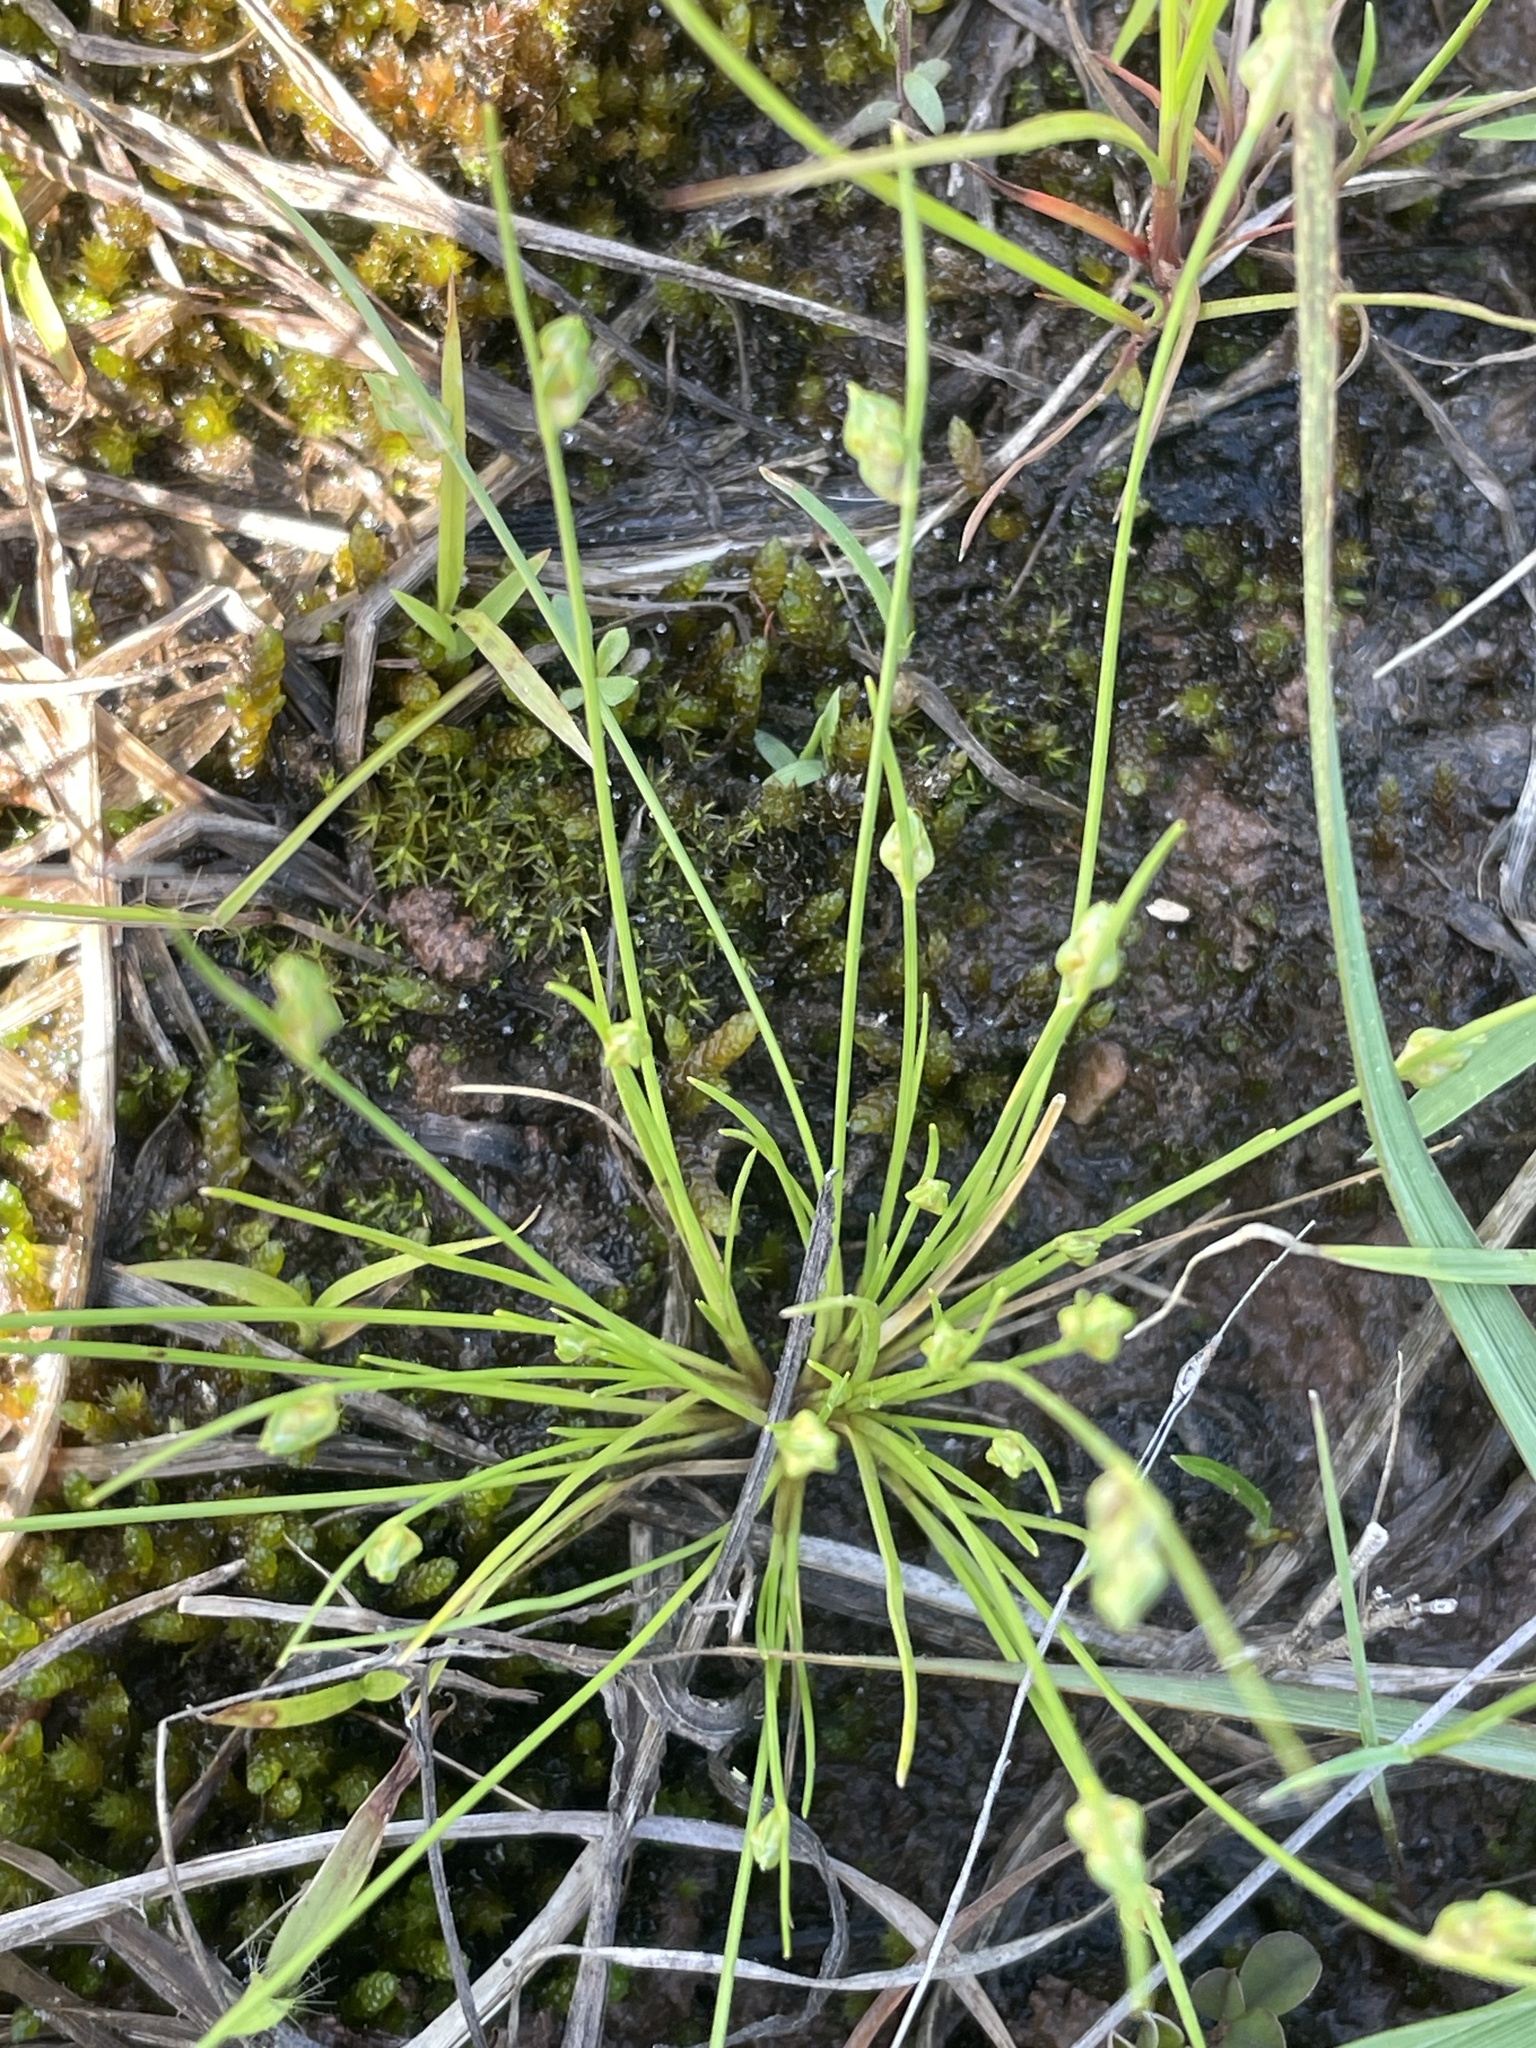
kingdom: Plantae
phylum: Tracheophyta
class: Liliopsida
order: Poales
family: Cyperaceae
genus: Isolepis
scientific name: Isolepis carinata
